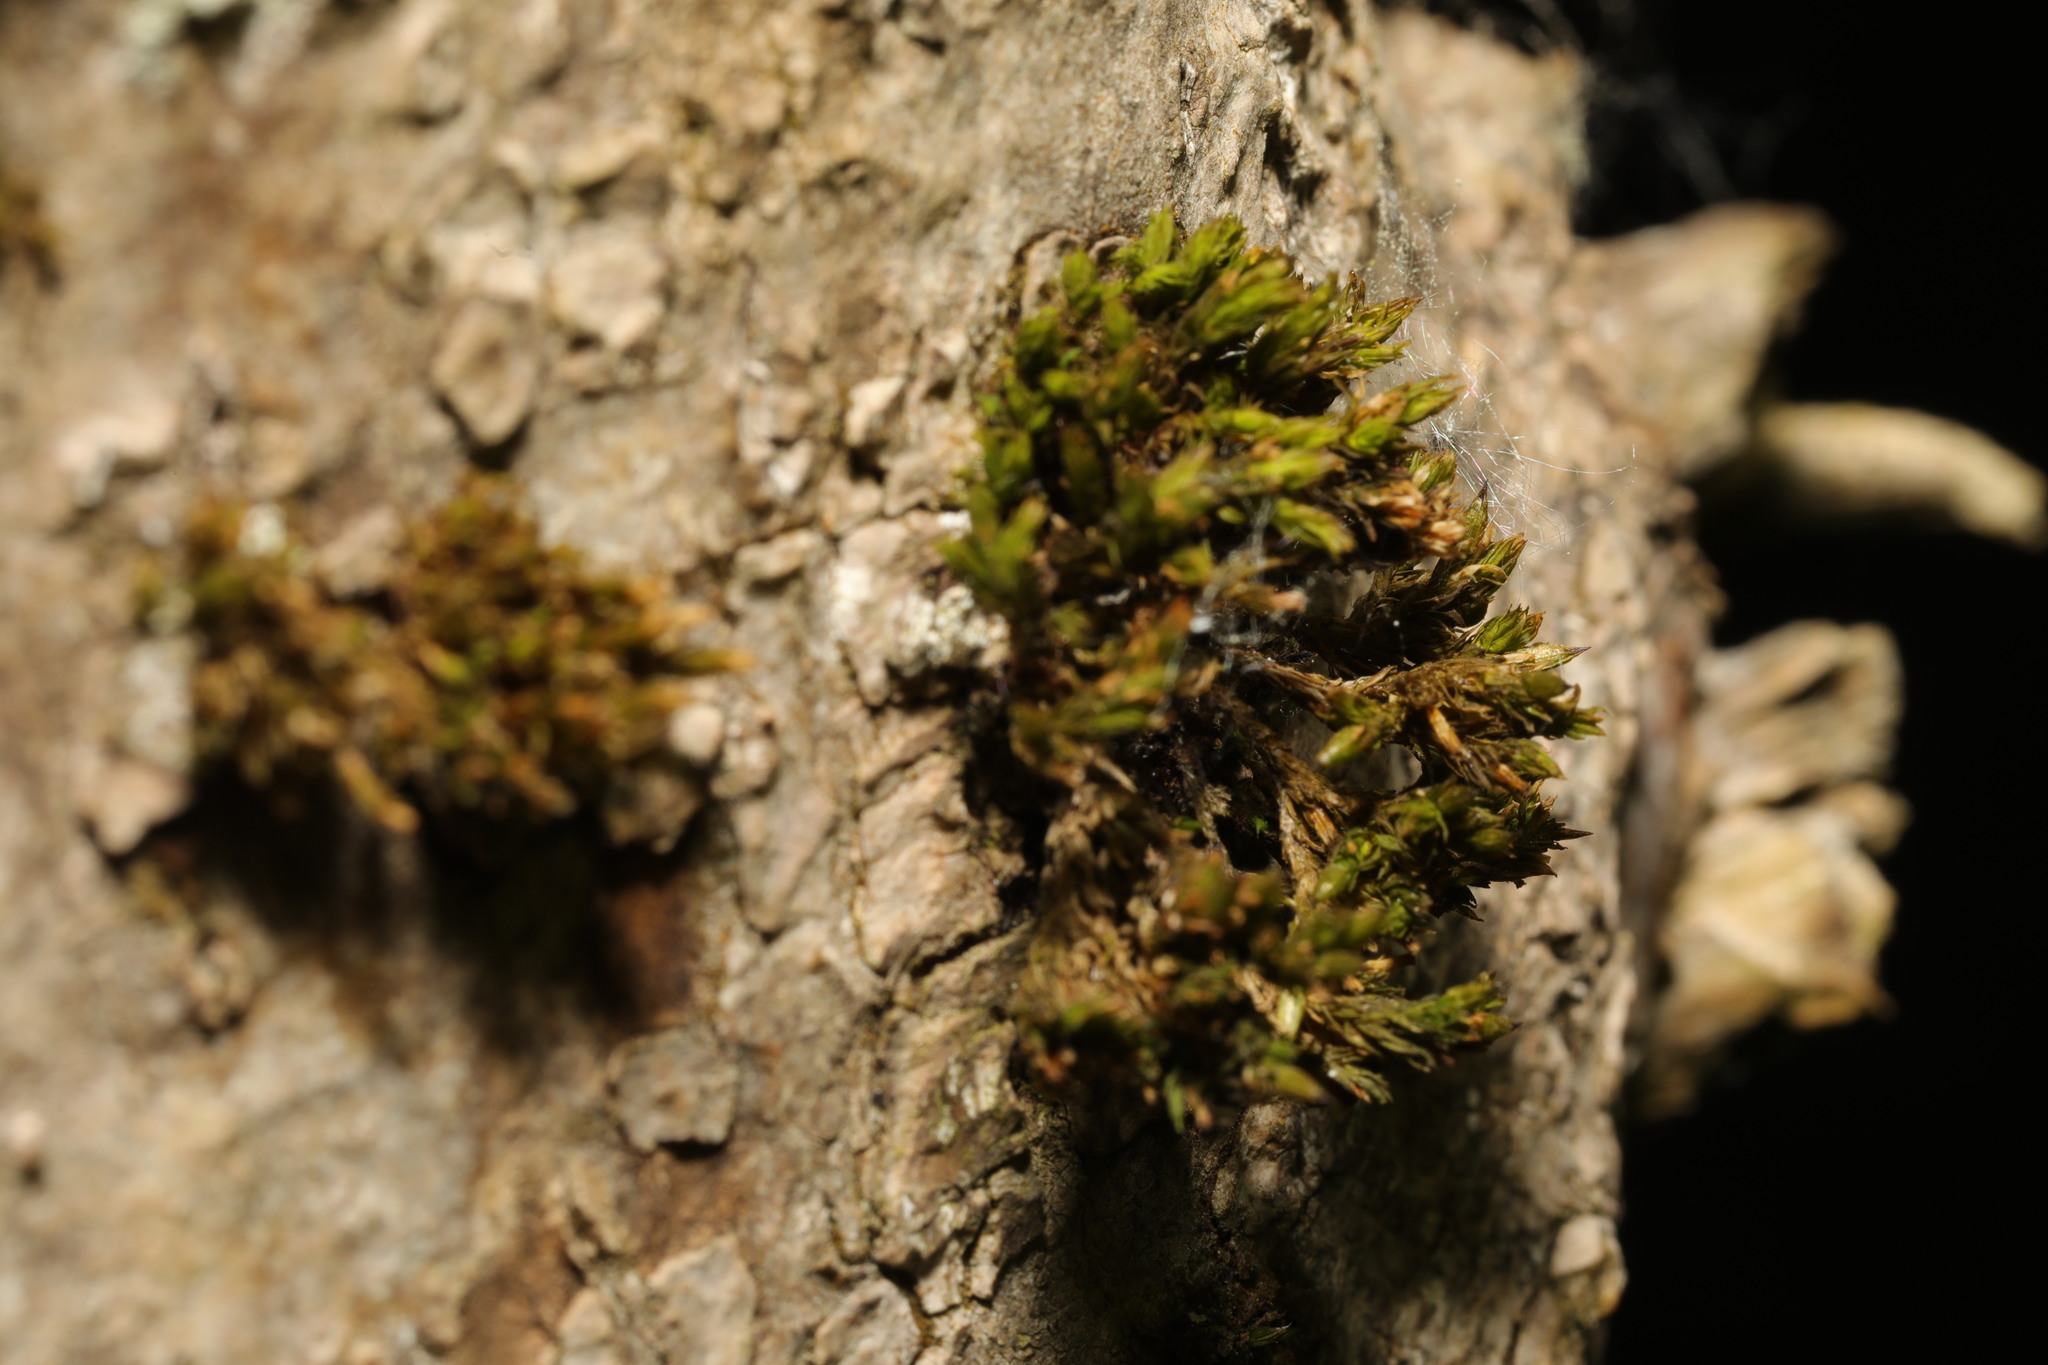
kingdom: Plantae
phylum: Bryophyta
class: Bryopsida
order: Orthotrichales
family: Orthotrichaceae
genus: Lewinskya
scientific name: Lewinskya affinis
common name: Wood bristle-moss
